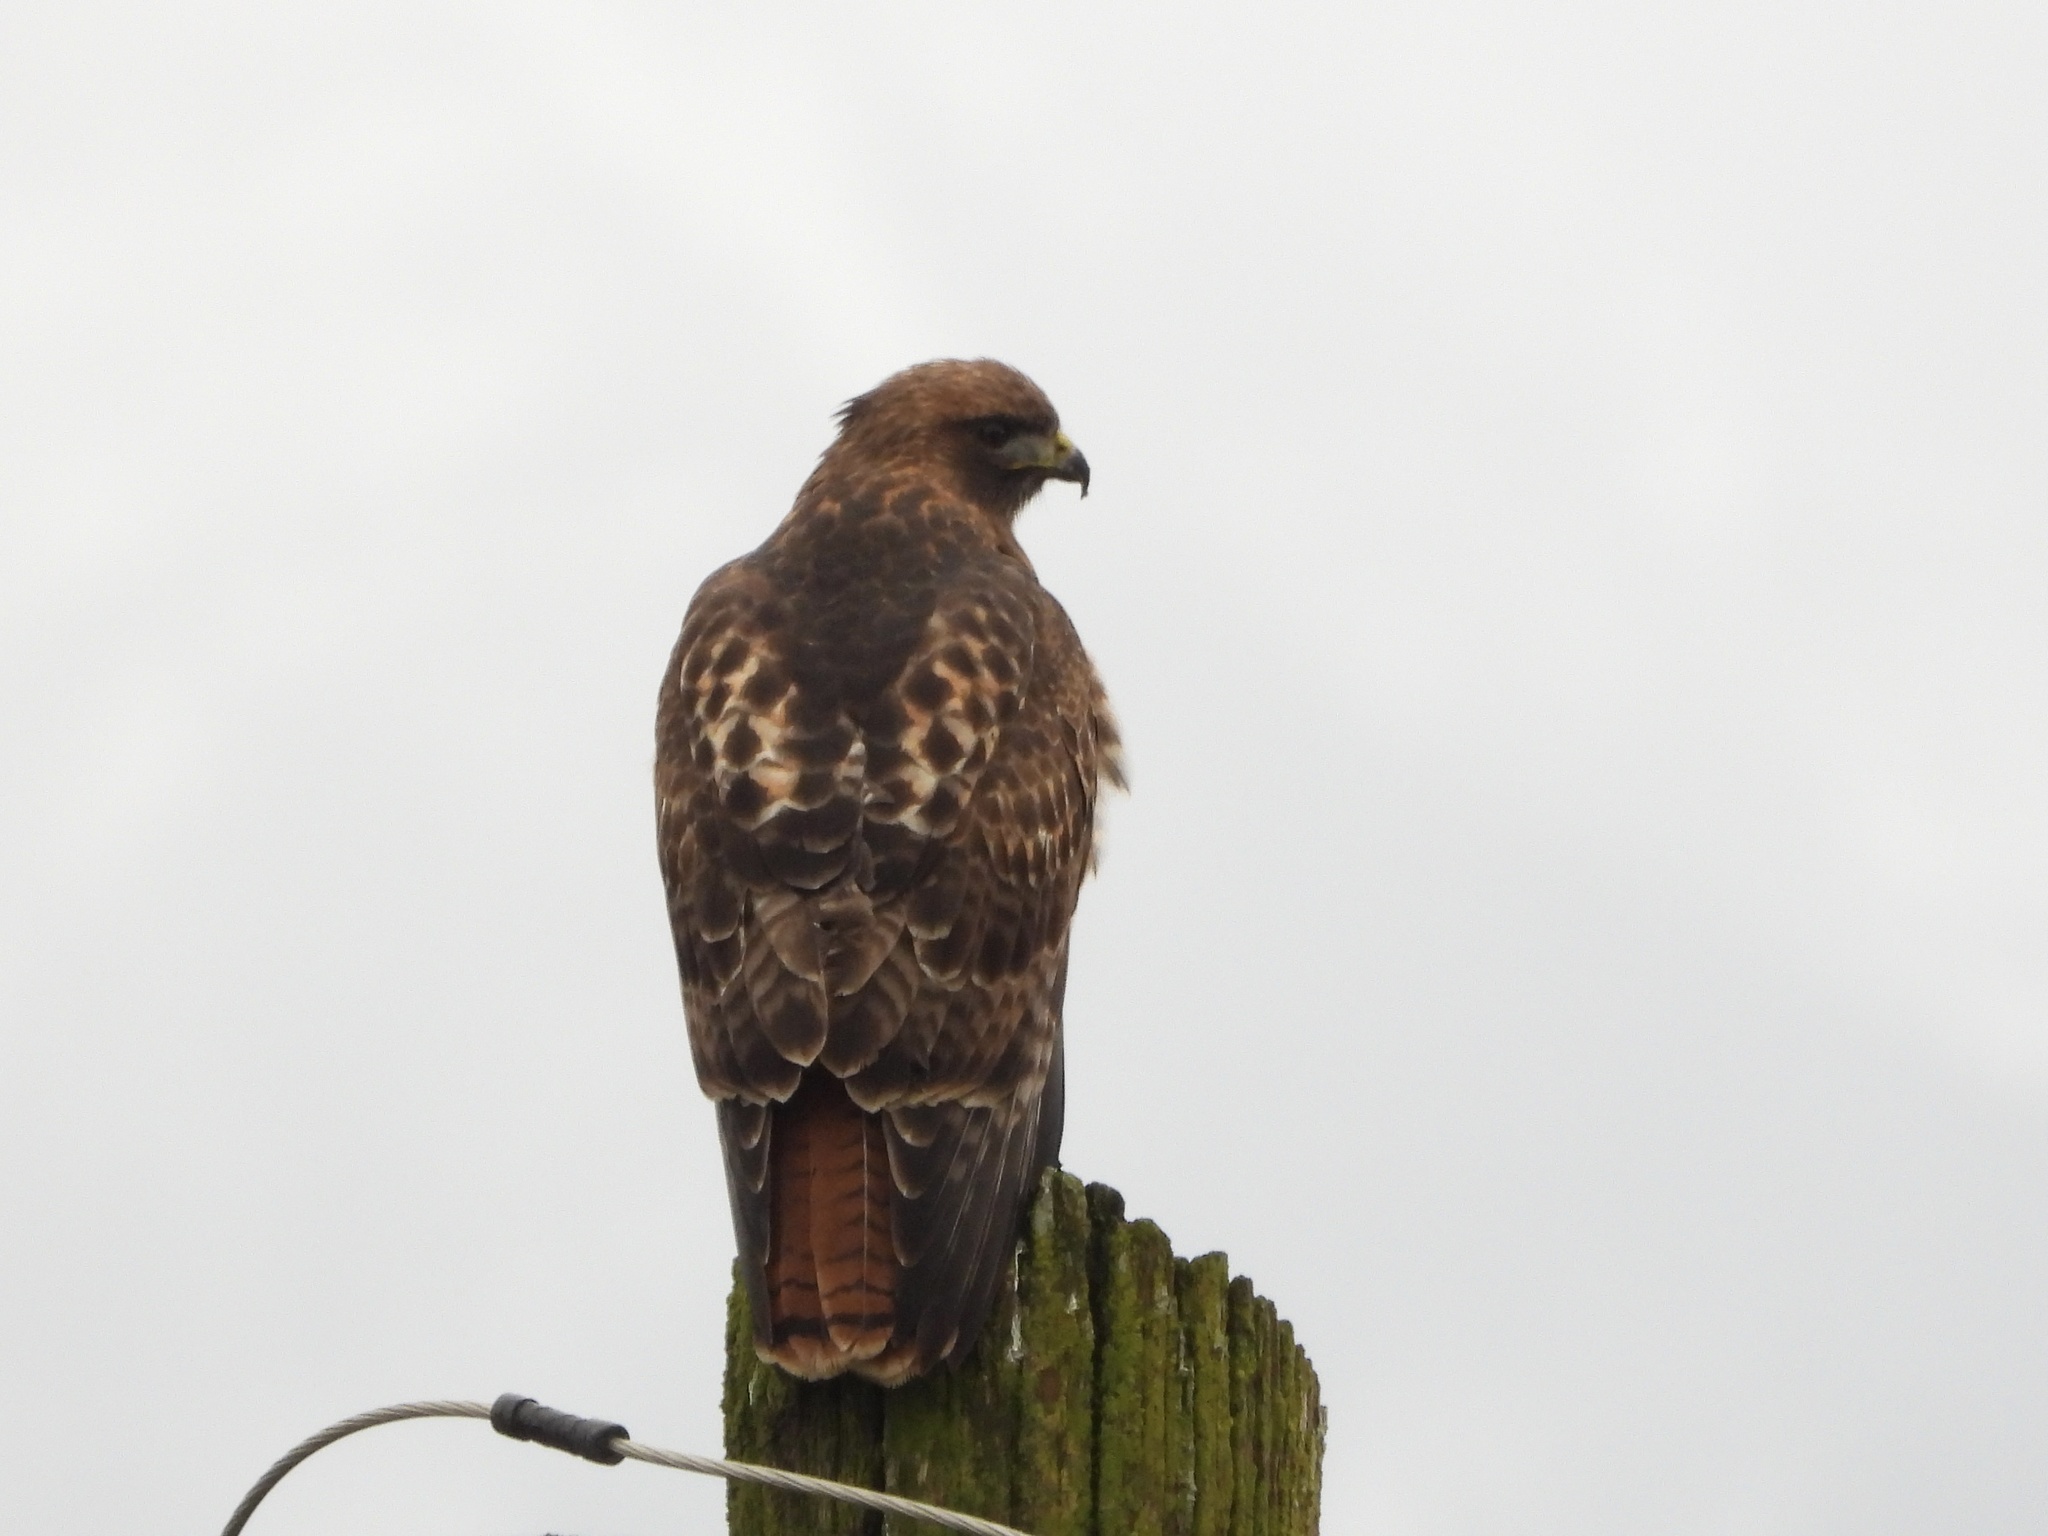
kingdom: Animalia
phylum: Chordata
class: Aves
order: Accipitriformes
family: Accipitridae
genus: Buteo
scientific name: Buteo jamaicensis
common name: Red-tailed hawk
